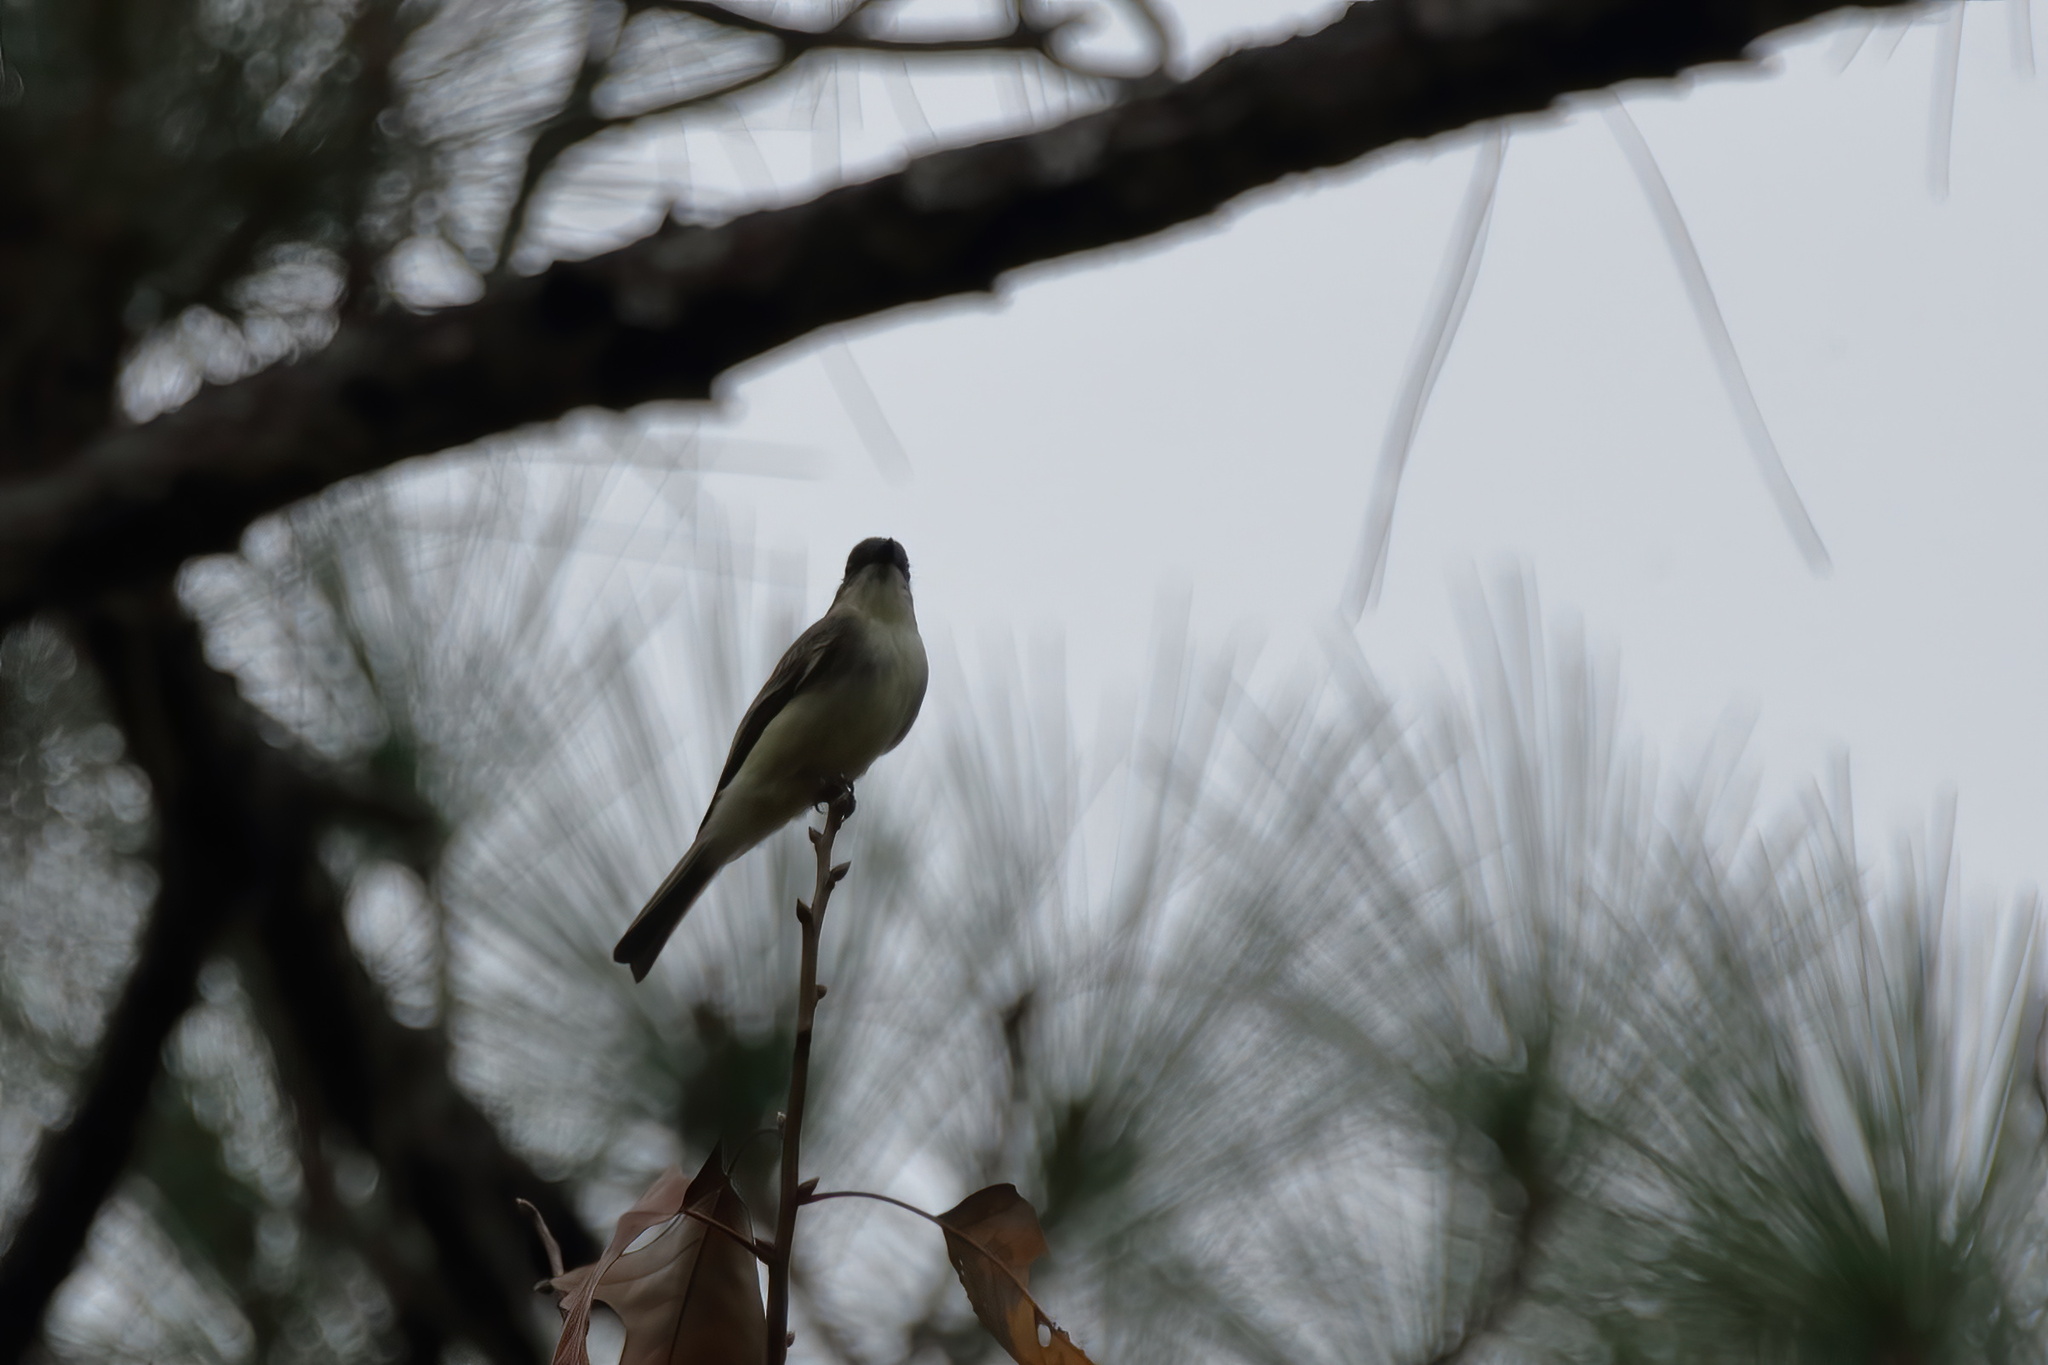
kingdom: Animalia
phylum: Chordata
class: Aves
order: Passeriformes
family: Tyrannidae
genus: Sayornis
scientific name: Sayornis phoebe
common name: Eastern phoebe
